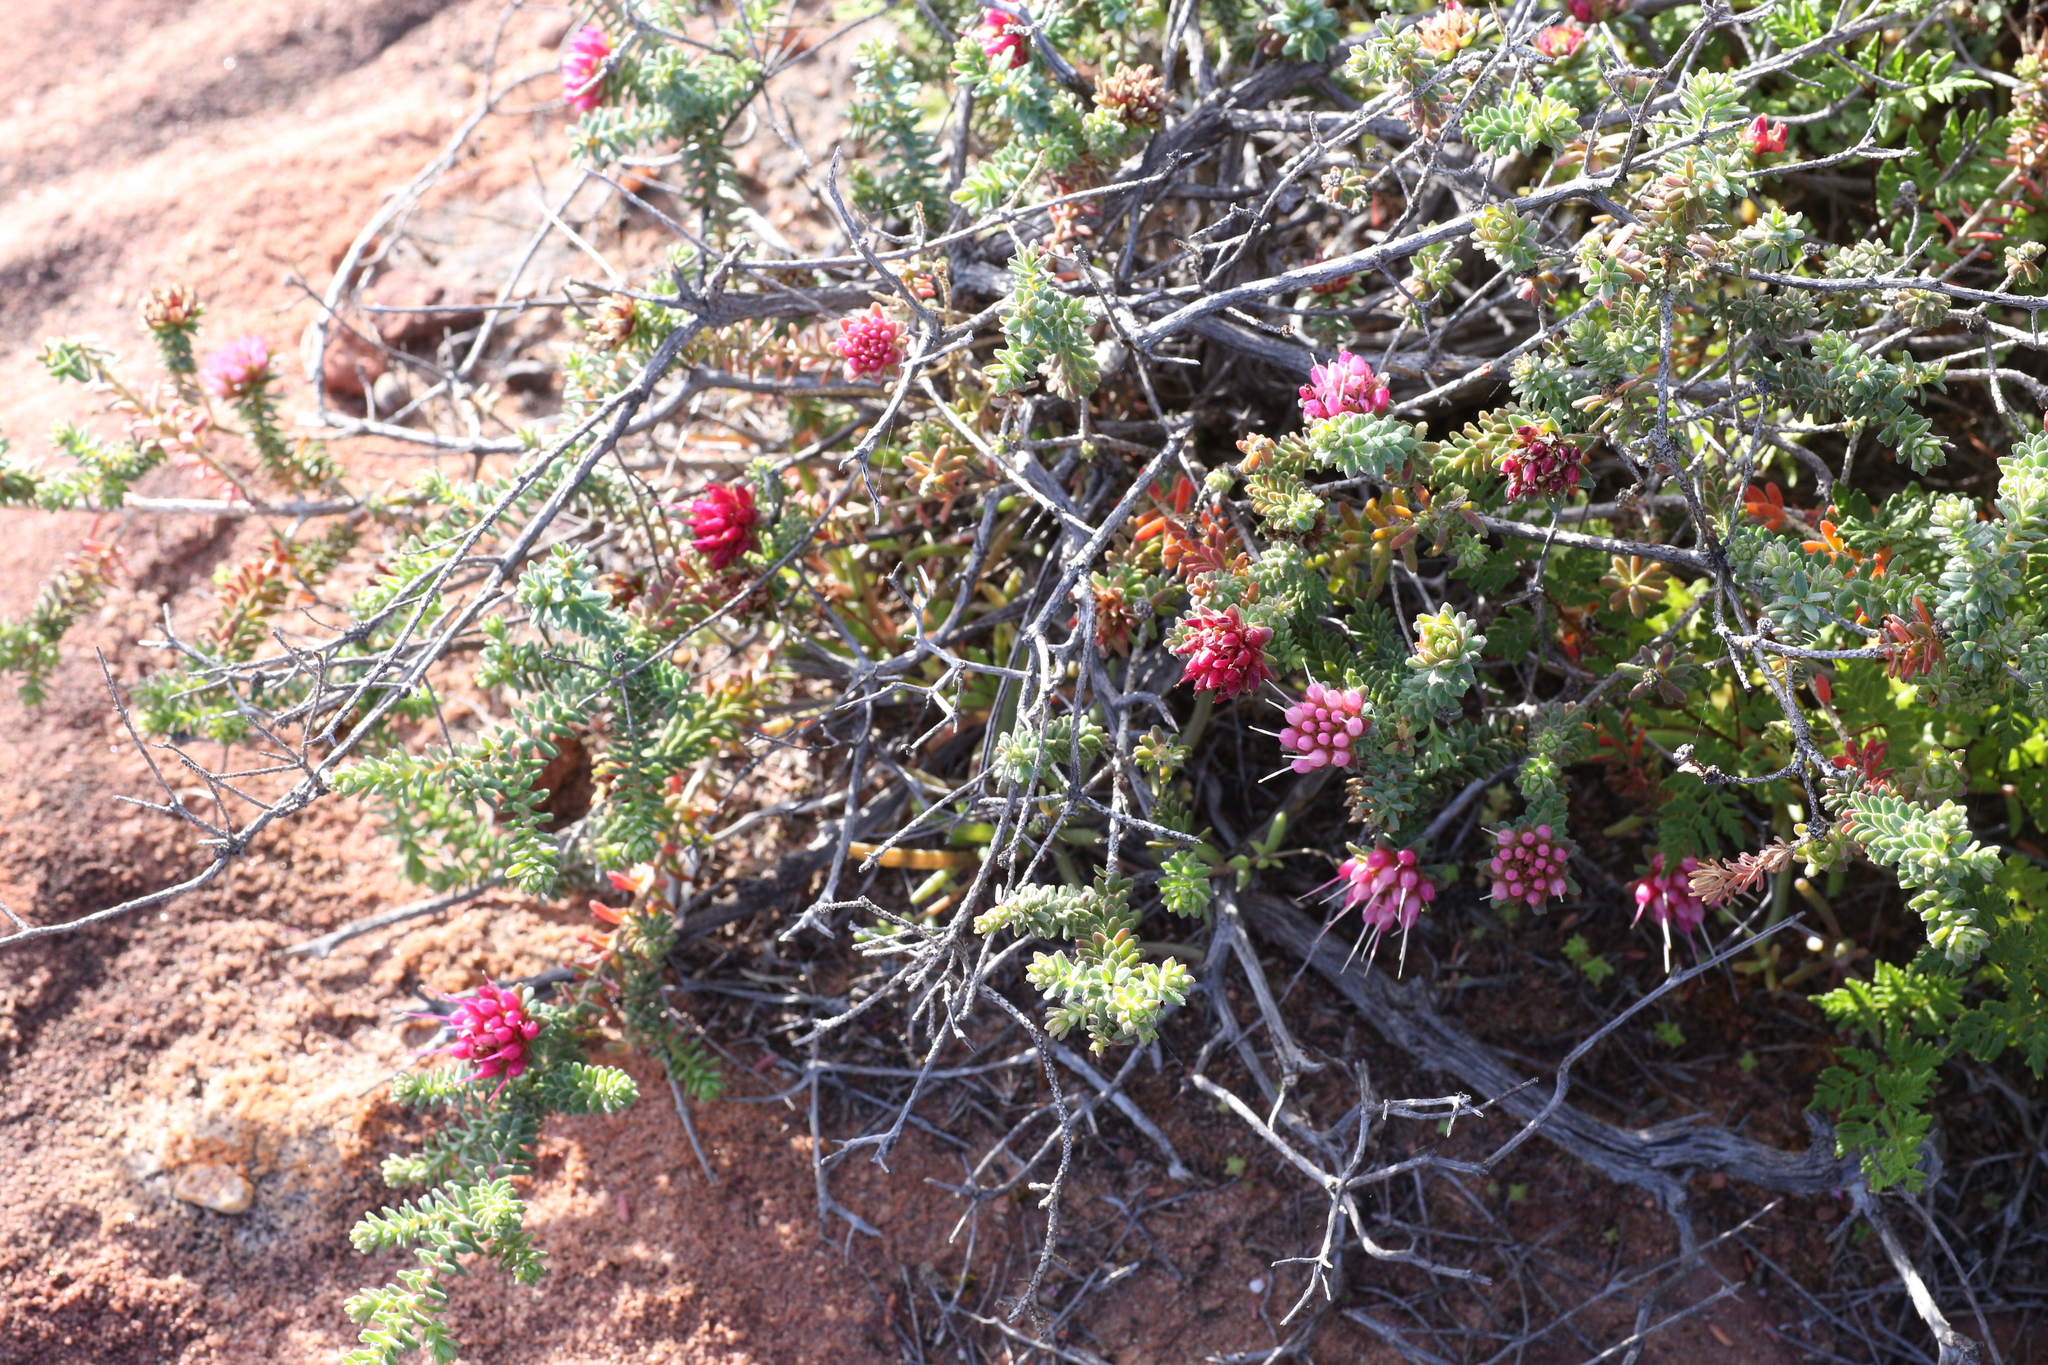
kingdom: Plantae
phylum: Tracheophyta
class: Magnoliopsida
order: Myrtales
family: Myrtaceae
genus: Darwinia
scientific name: Darwinia oldfieldii
